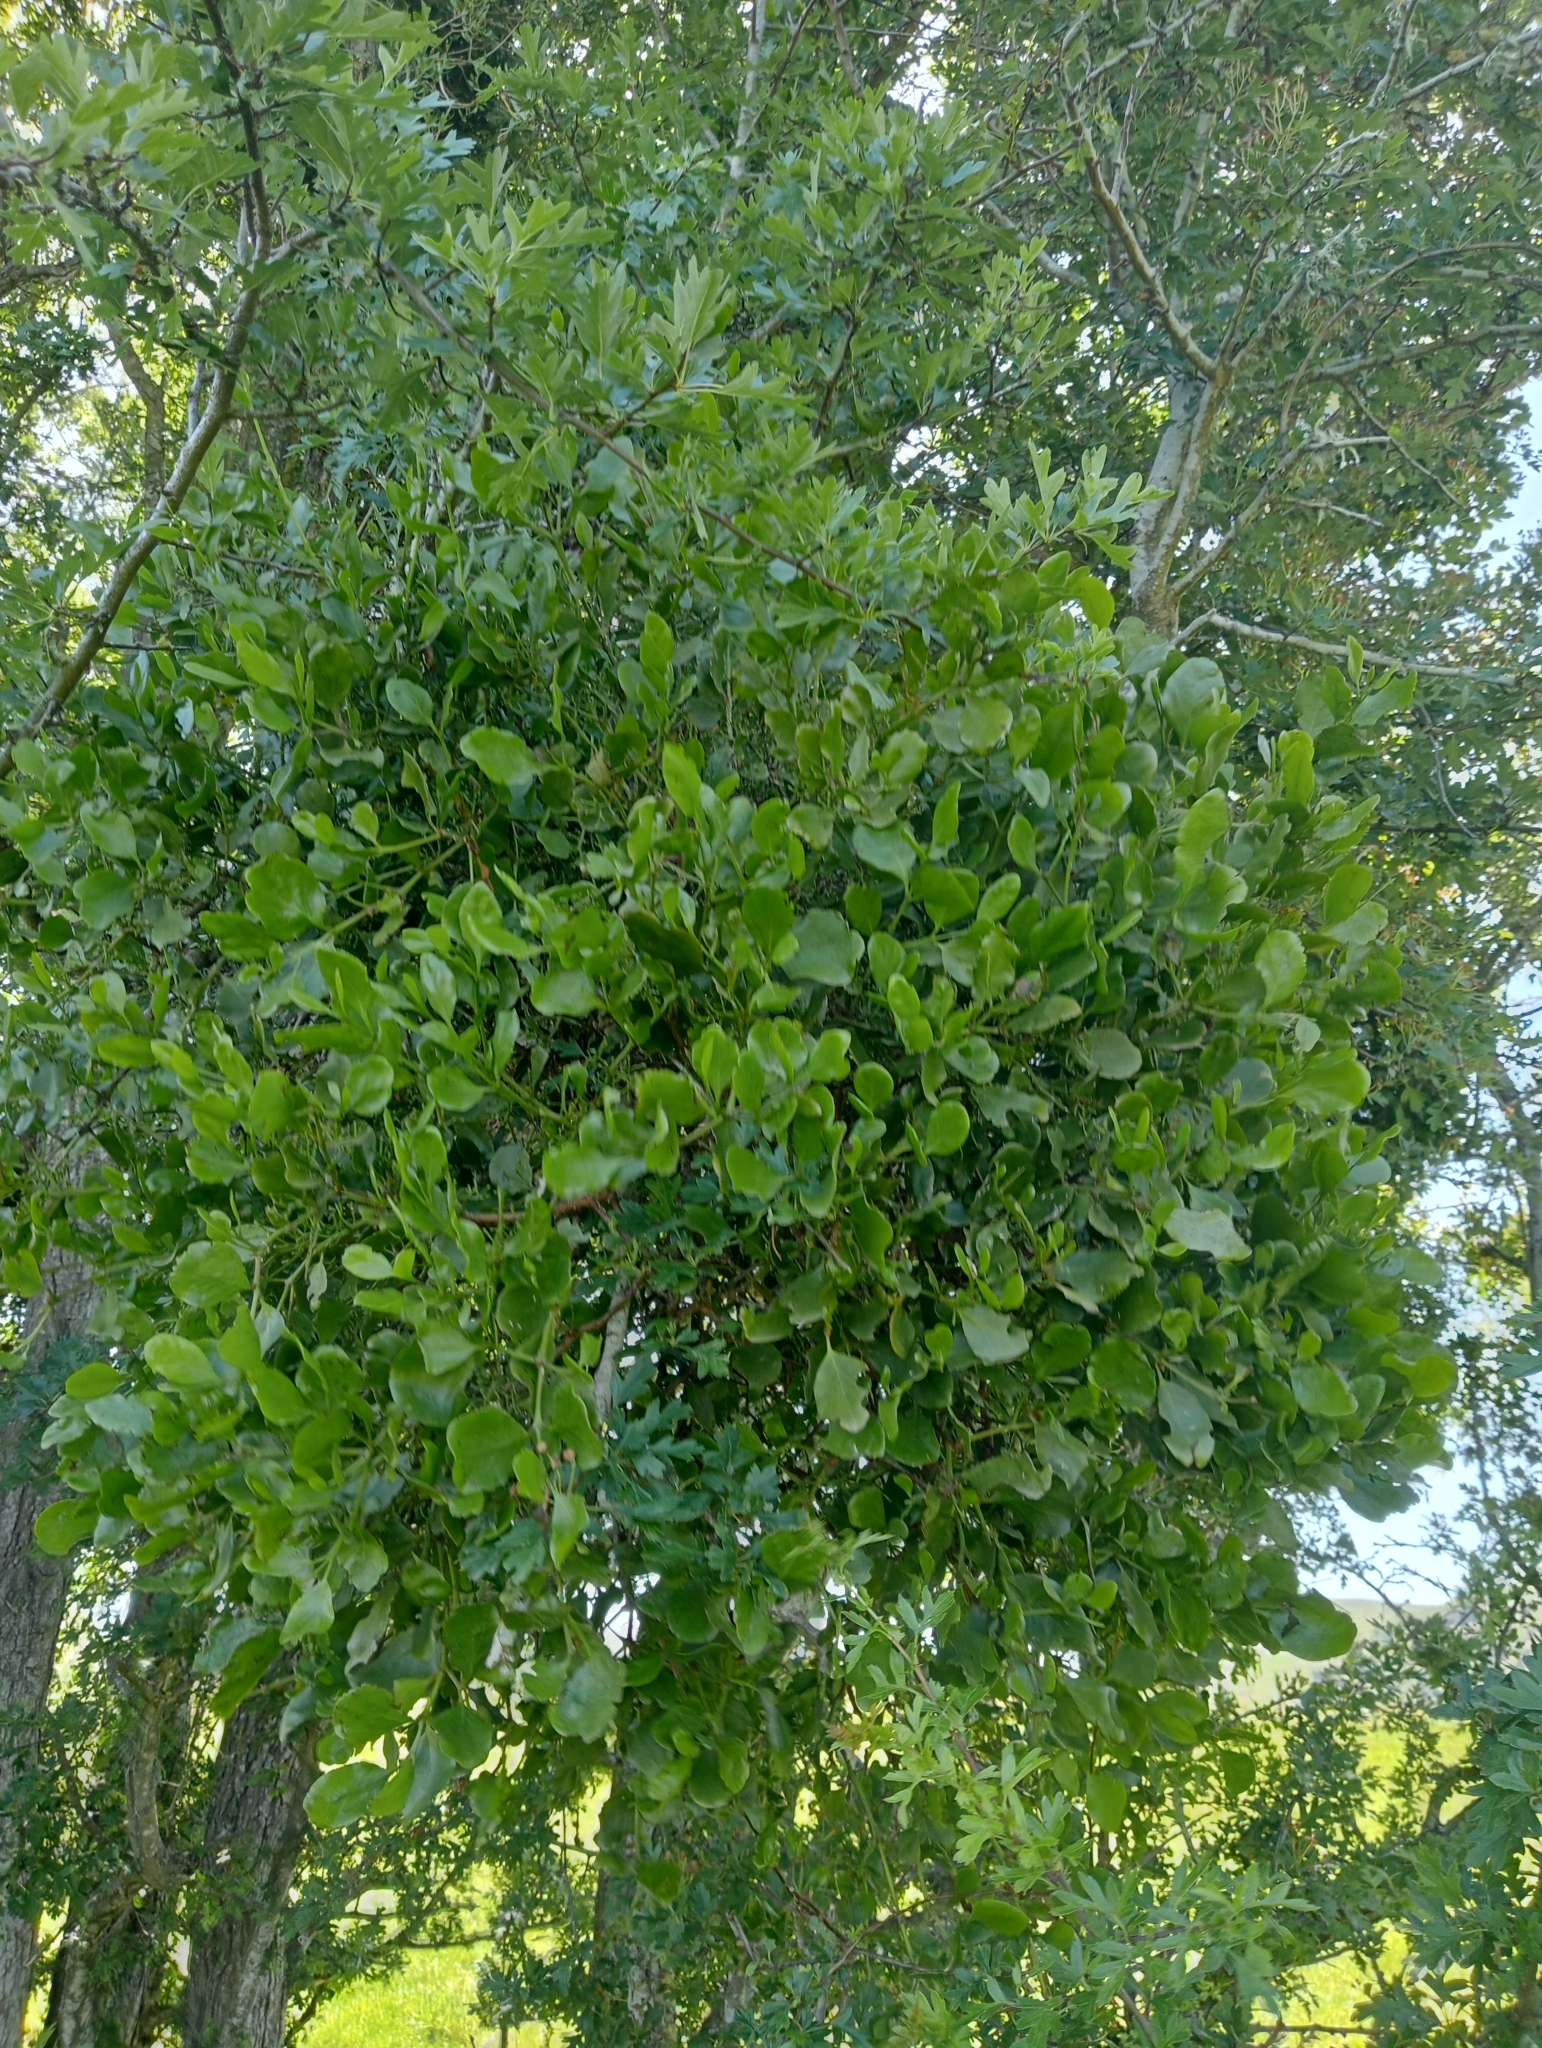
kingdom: Plantae
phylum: Tracheophyta
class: Magnoliopsida
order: Santalales
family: Loranthaceae
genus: Ileostylus
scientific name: Ileostylus micranthus
